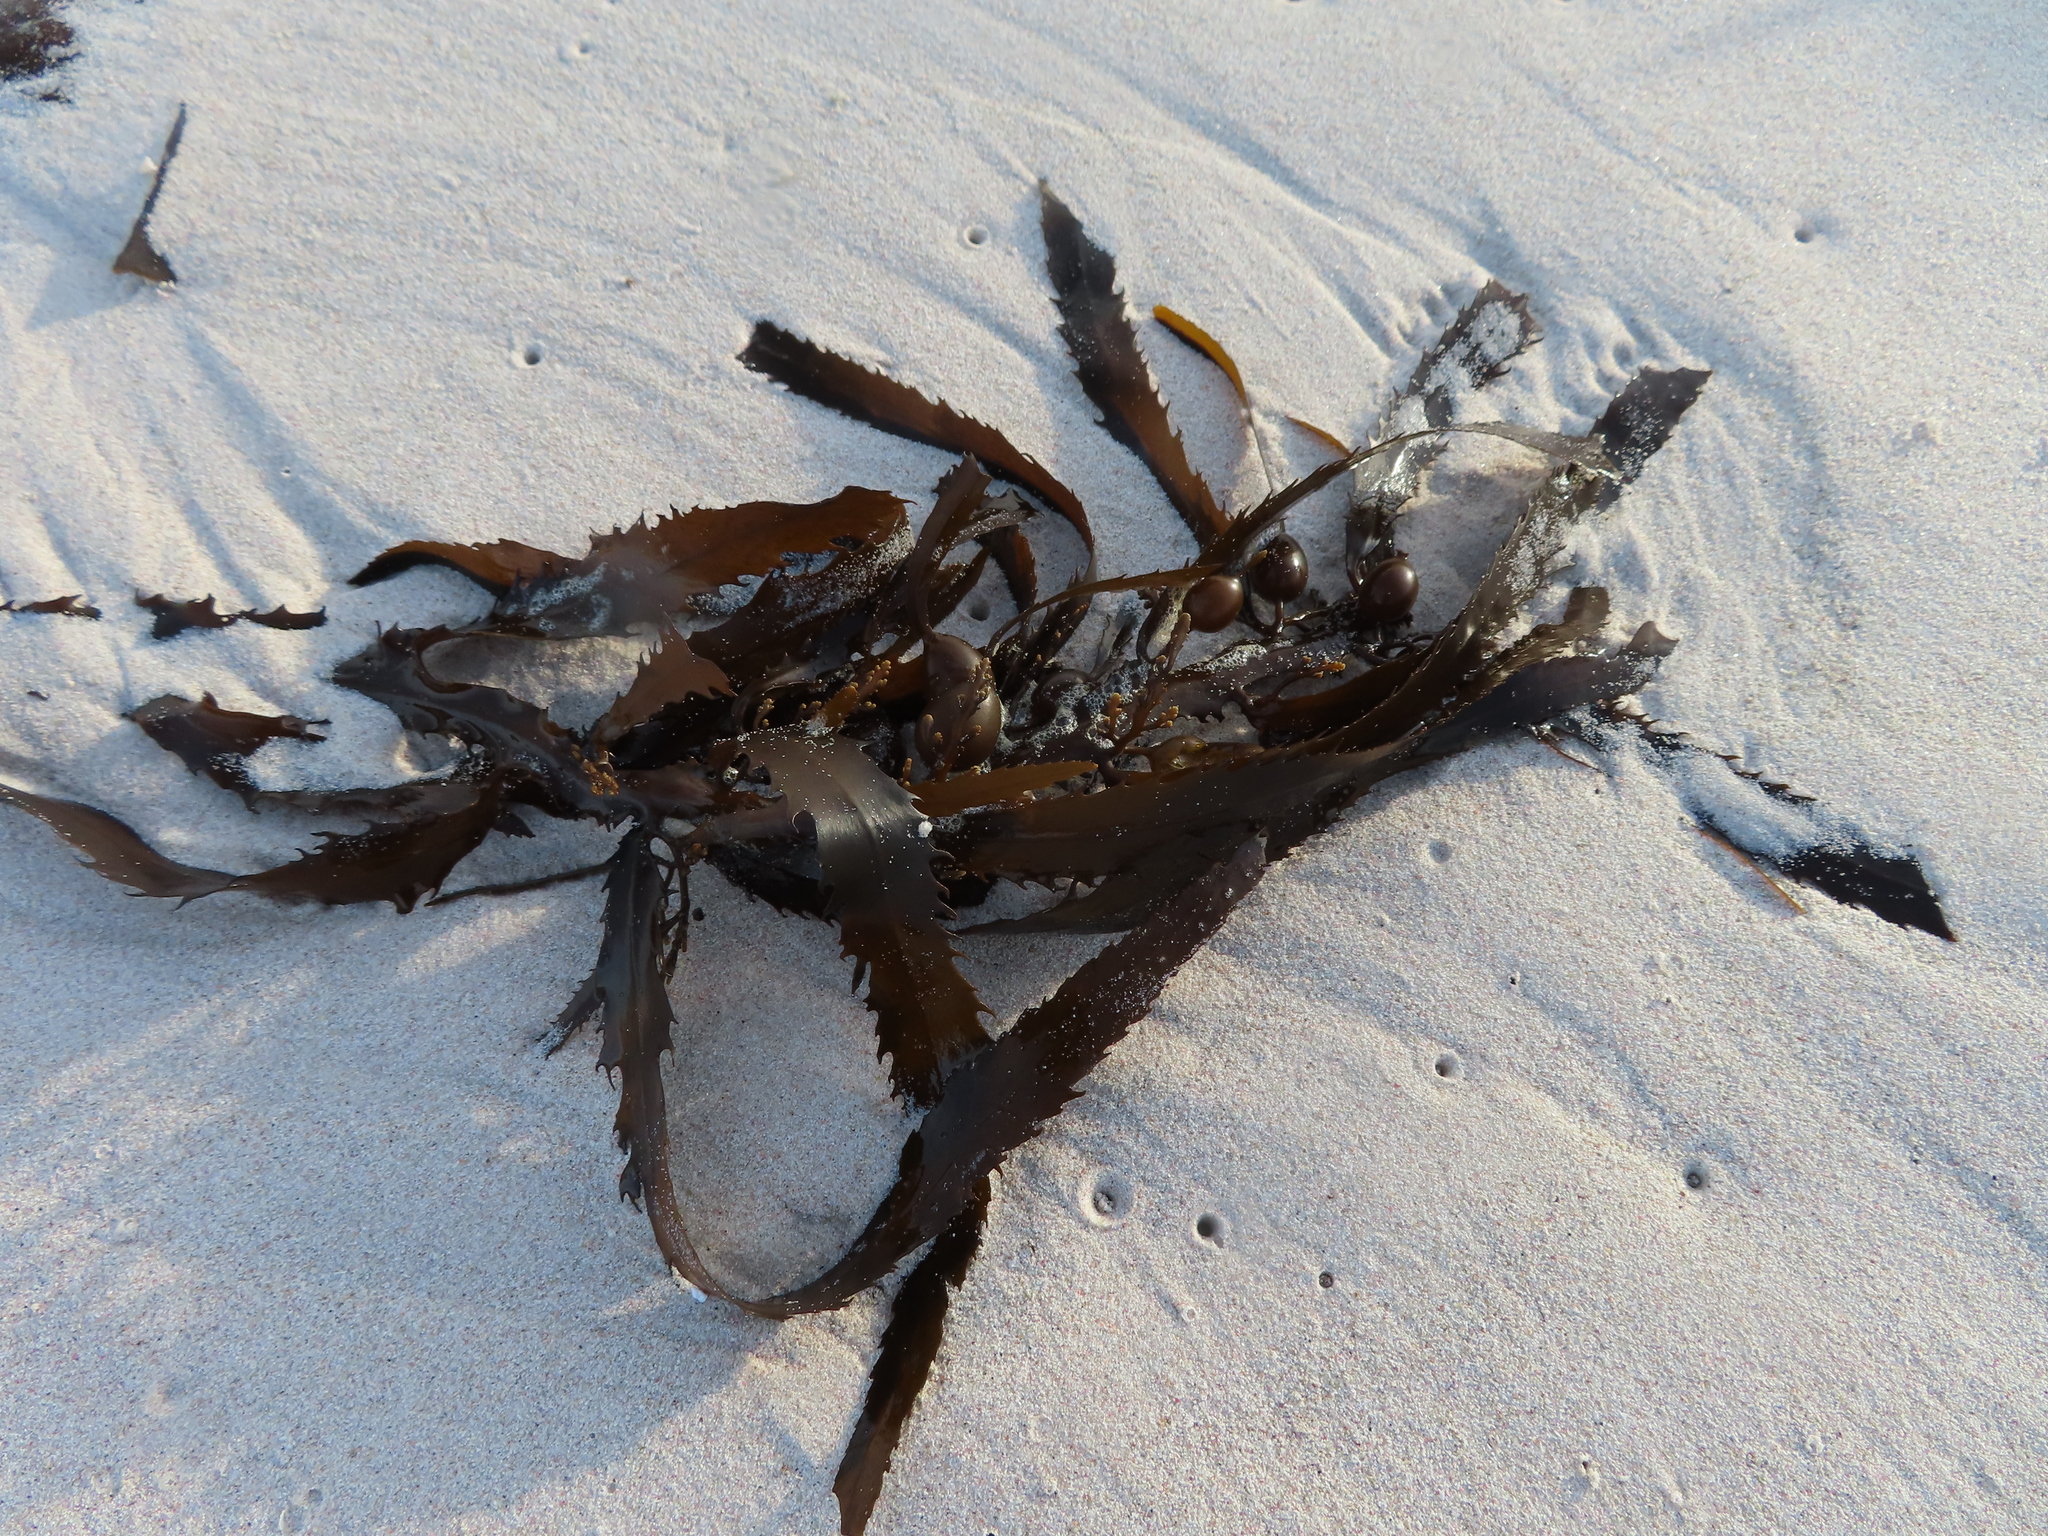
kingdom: Chromista
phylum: Ochrophyta
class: Phaeophyceae
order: Fucales
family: Sargassaceae
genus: Anthophycus
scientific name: Anthophycus
